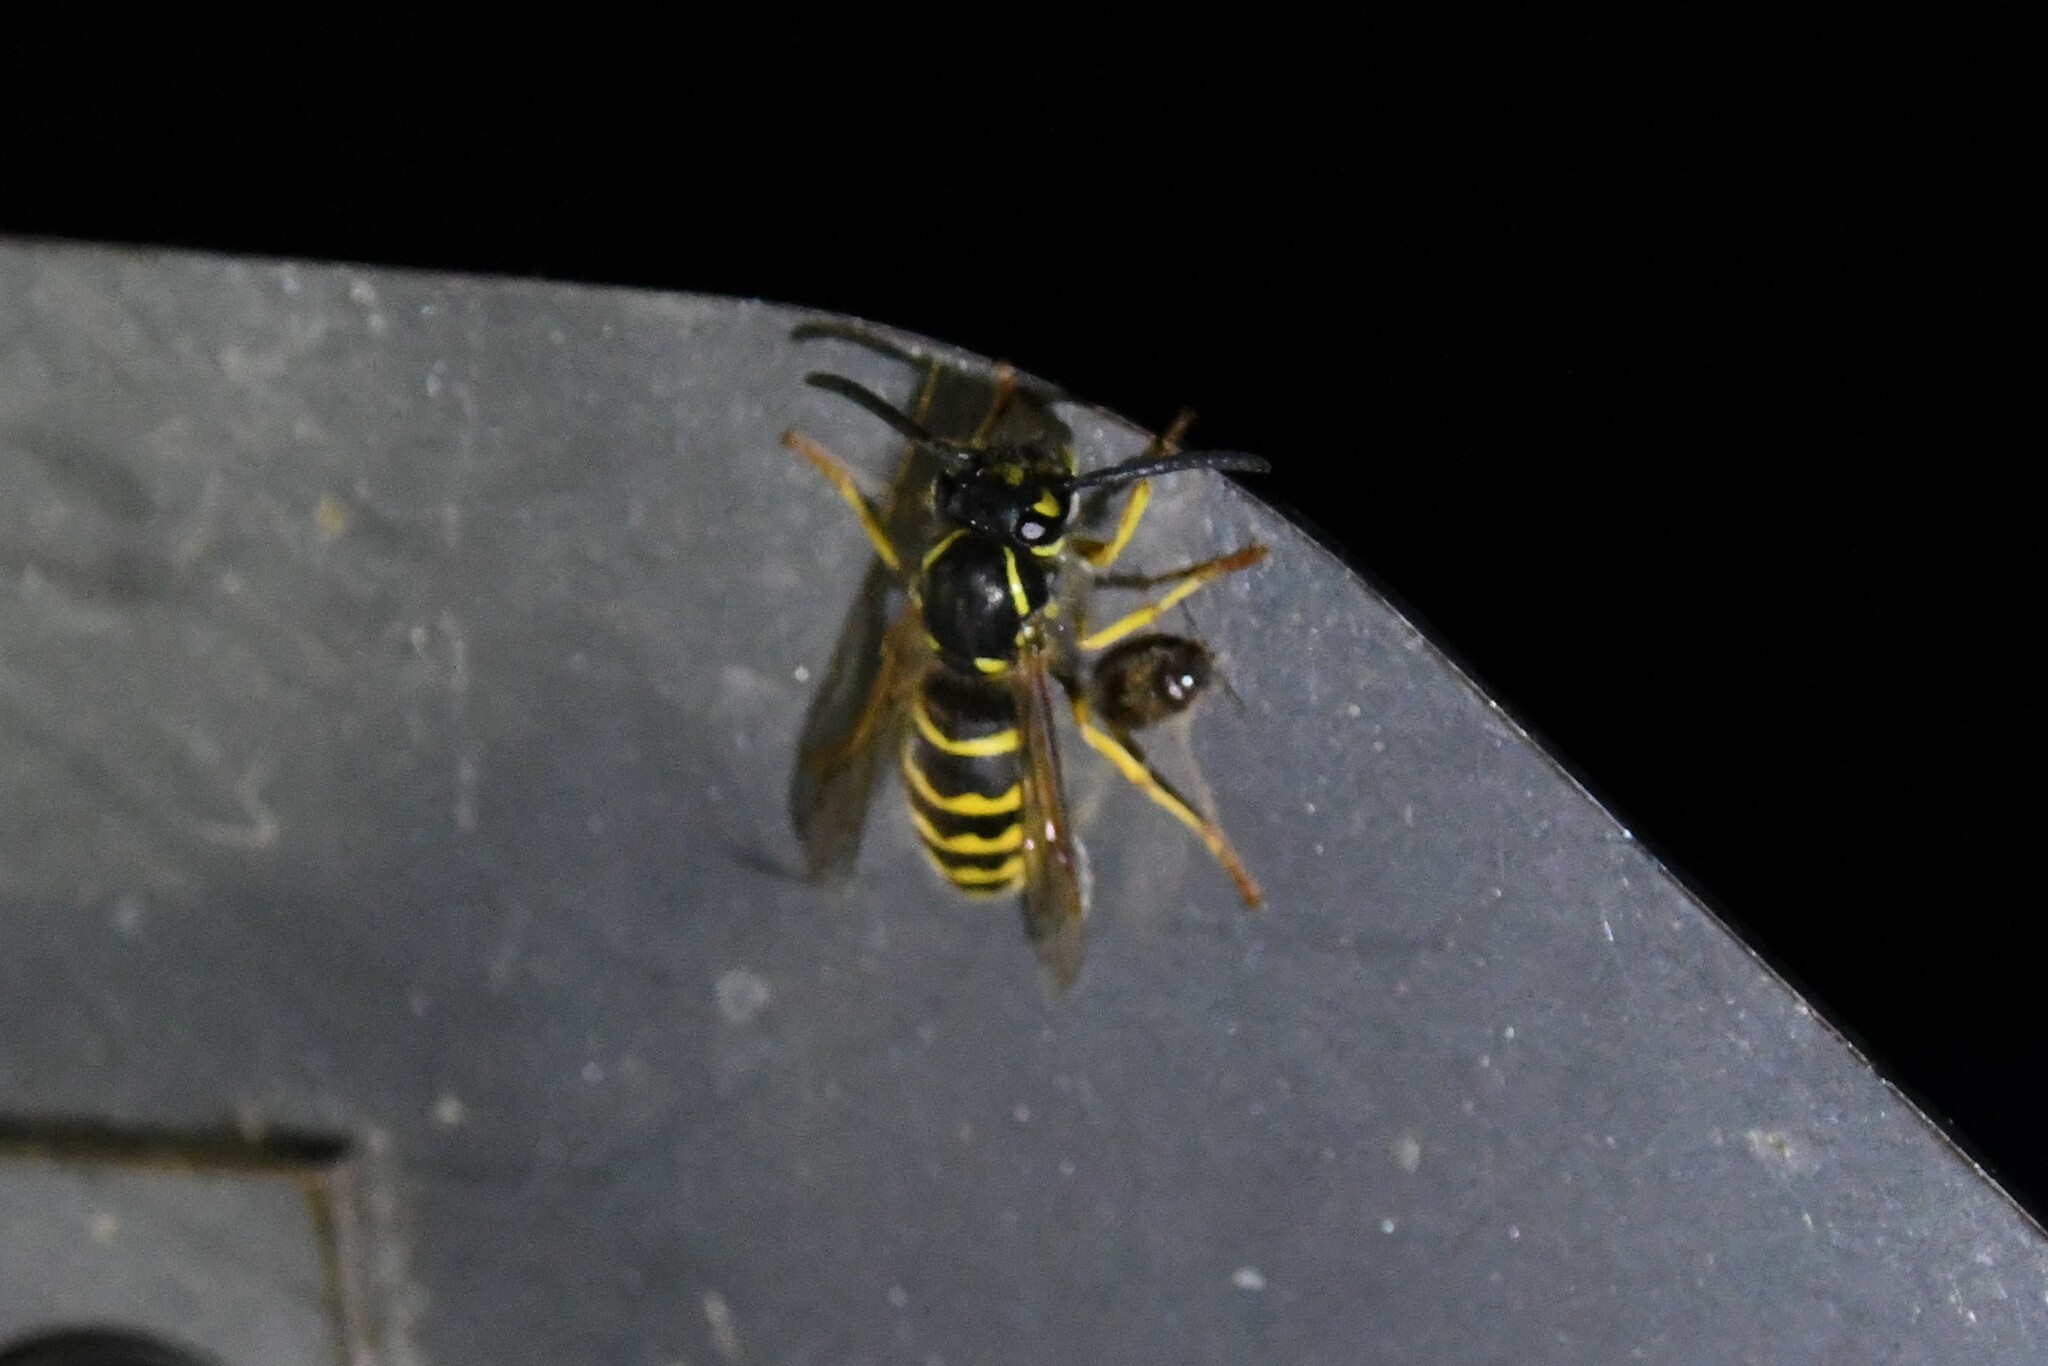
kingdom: Animalia
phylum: Arthropoda
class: Insecta
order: Hymenoptera
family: Vespidae
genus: Vespula
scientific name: Vespula alascensis
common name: Alaska yellowjacket
